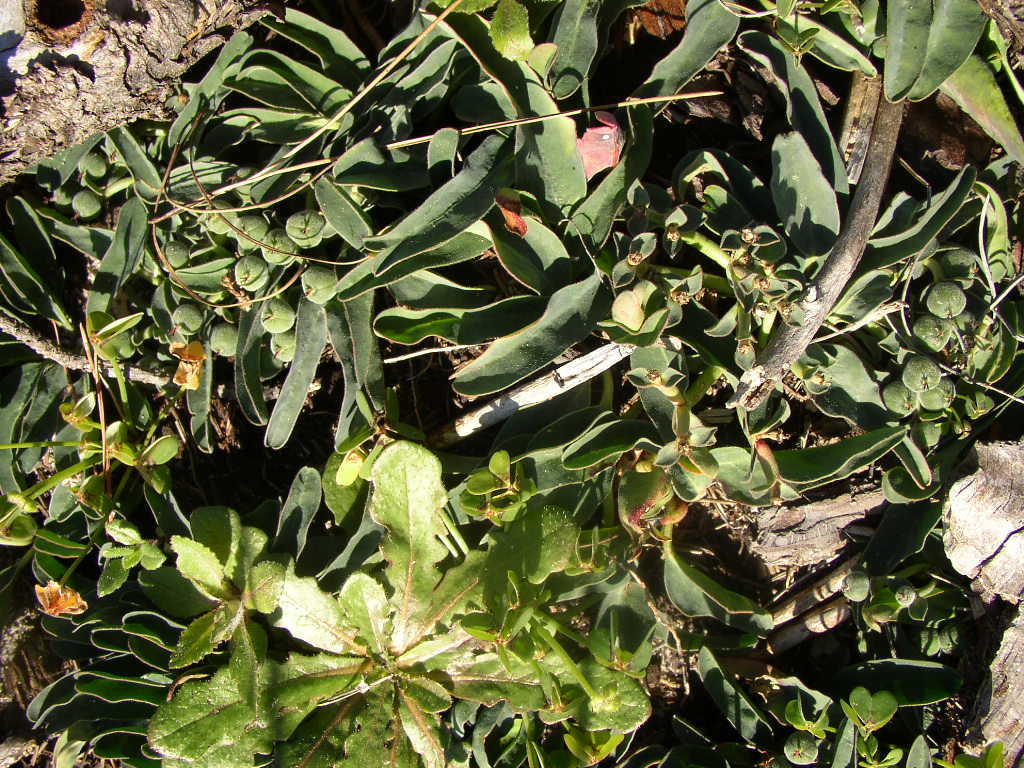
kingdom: Plantae
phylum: Tracheophyta
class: Magnoliopsida
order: Malpighiales
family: Euphorbiaceae
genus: Euphorbia
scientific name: Euphorbia tuberosa
